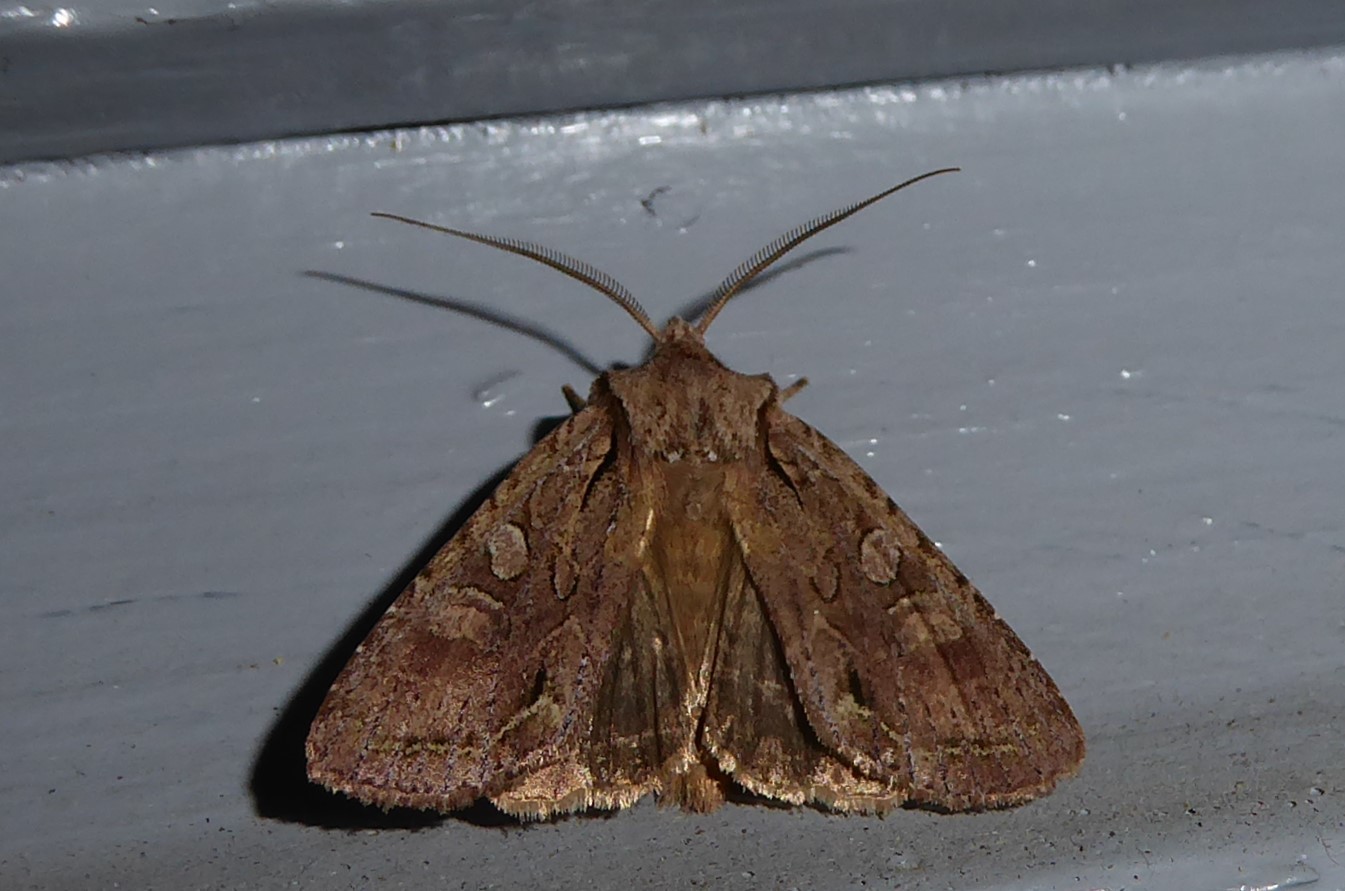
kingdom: Animalia
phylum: Arthropoda
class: Insecta
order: Lepidoptera
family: Noctuidae
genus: Ichneutica
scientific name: Ichneutica mutans
